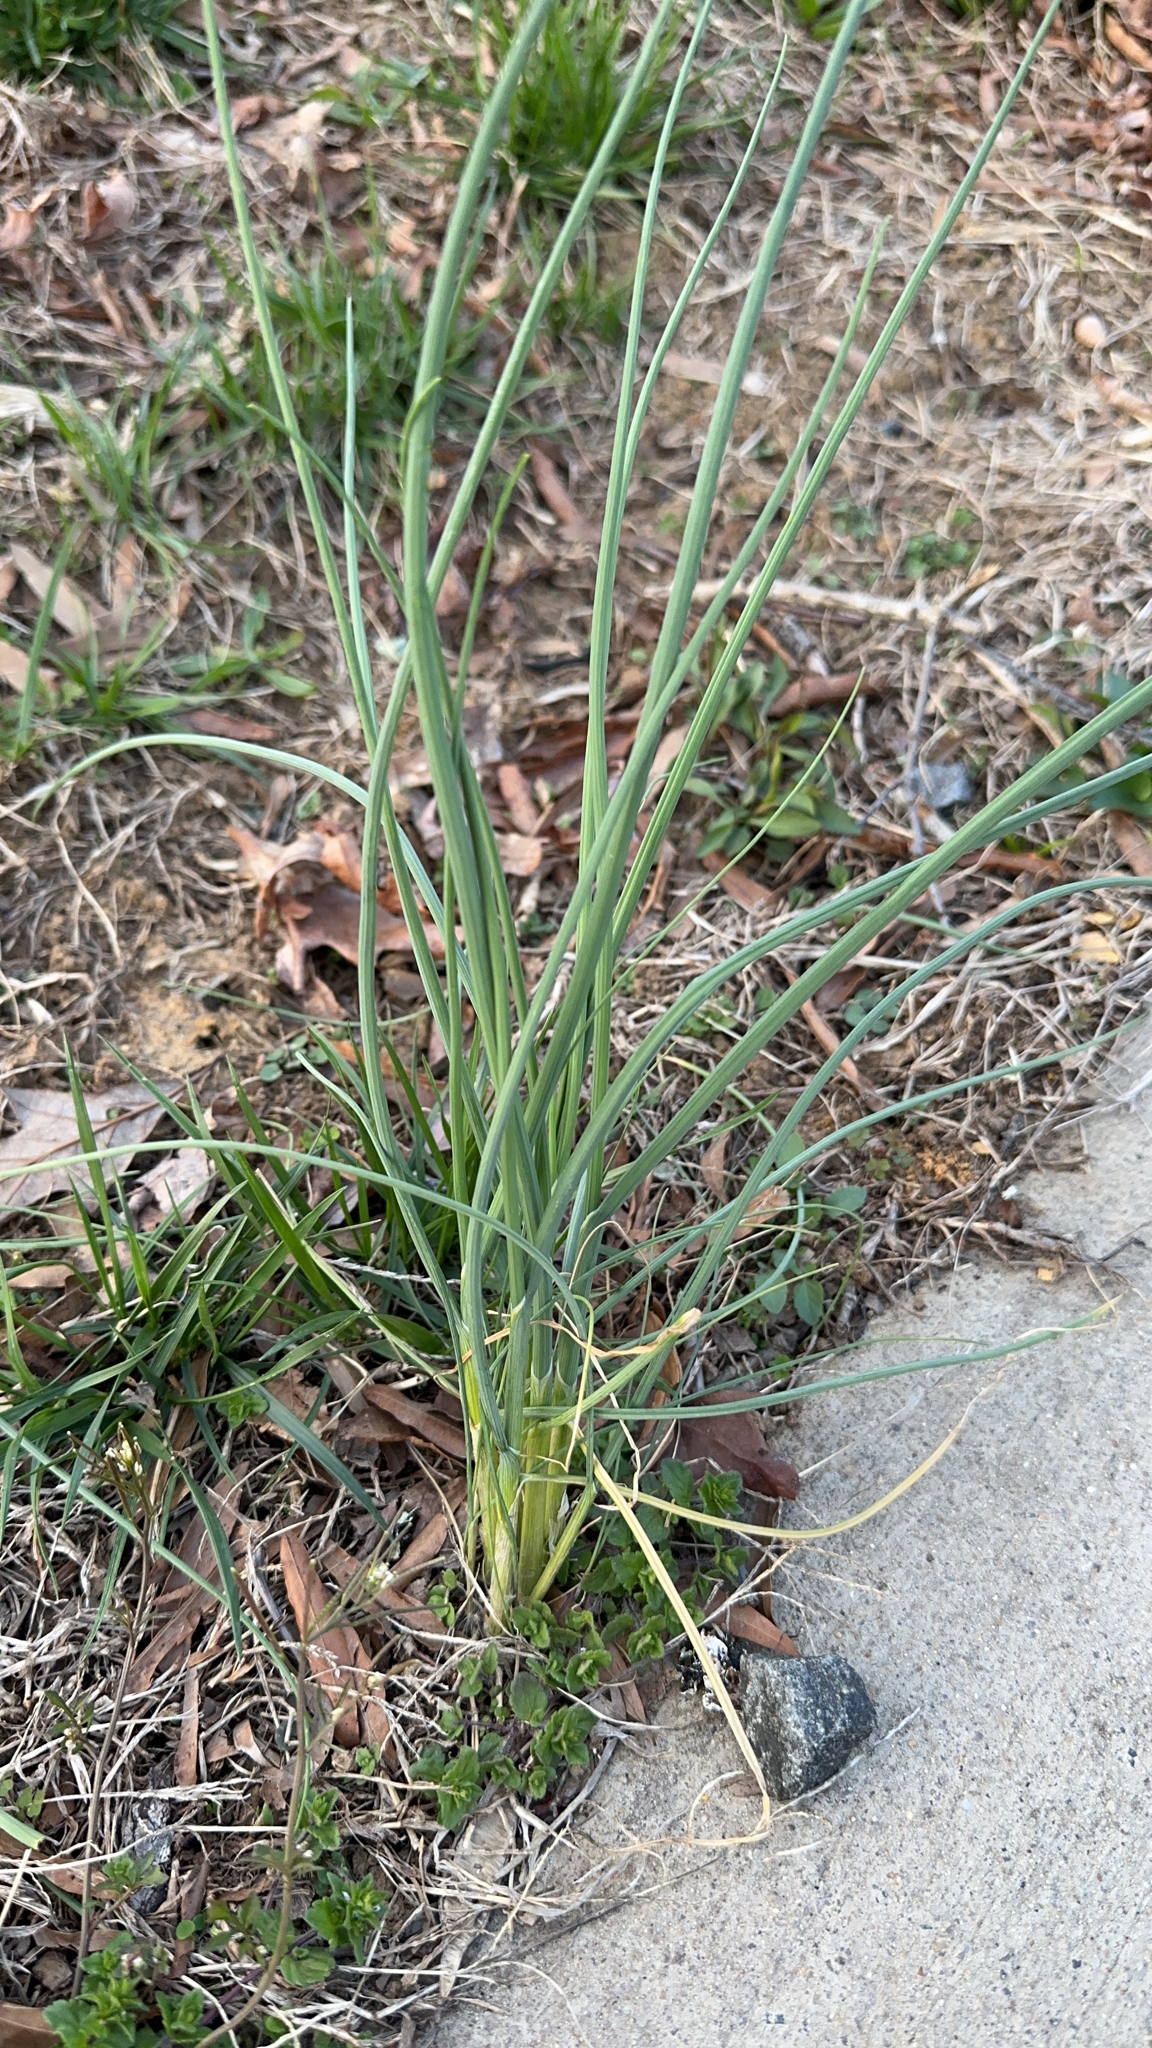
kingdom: Plantae
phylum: Tracheophyta
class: Liliopsida
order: Asparagales
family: Amaryllidaceae
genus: Allium
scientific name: Allium vineale
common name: Crow garlic
